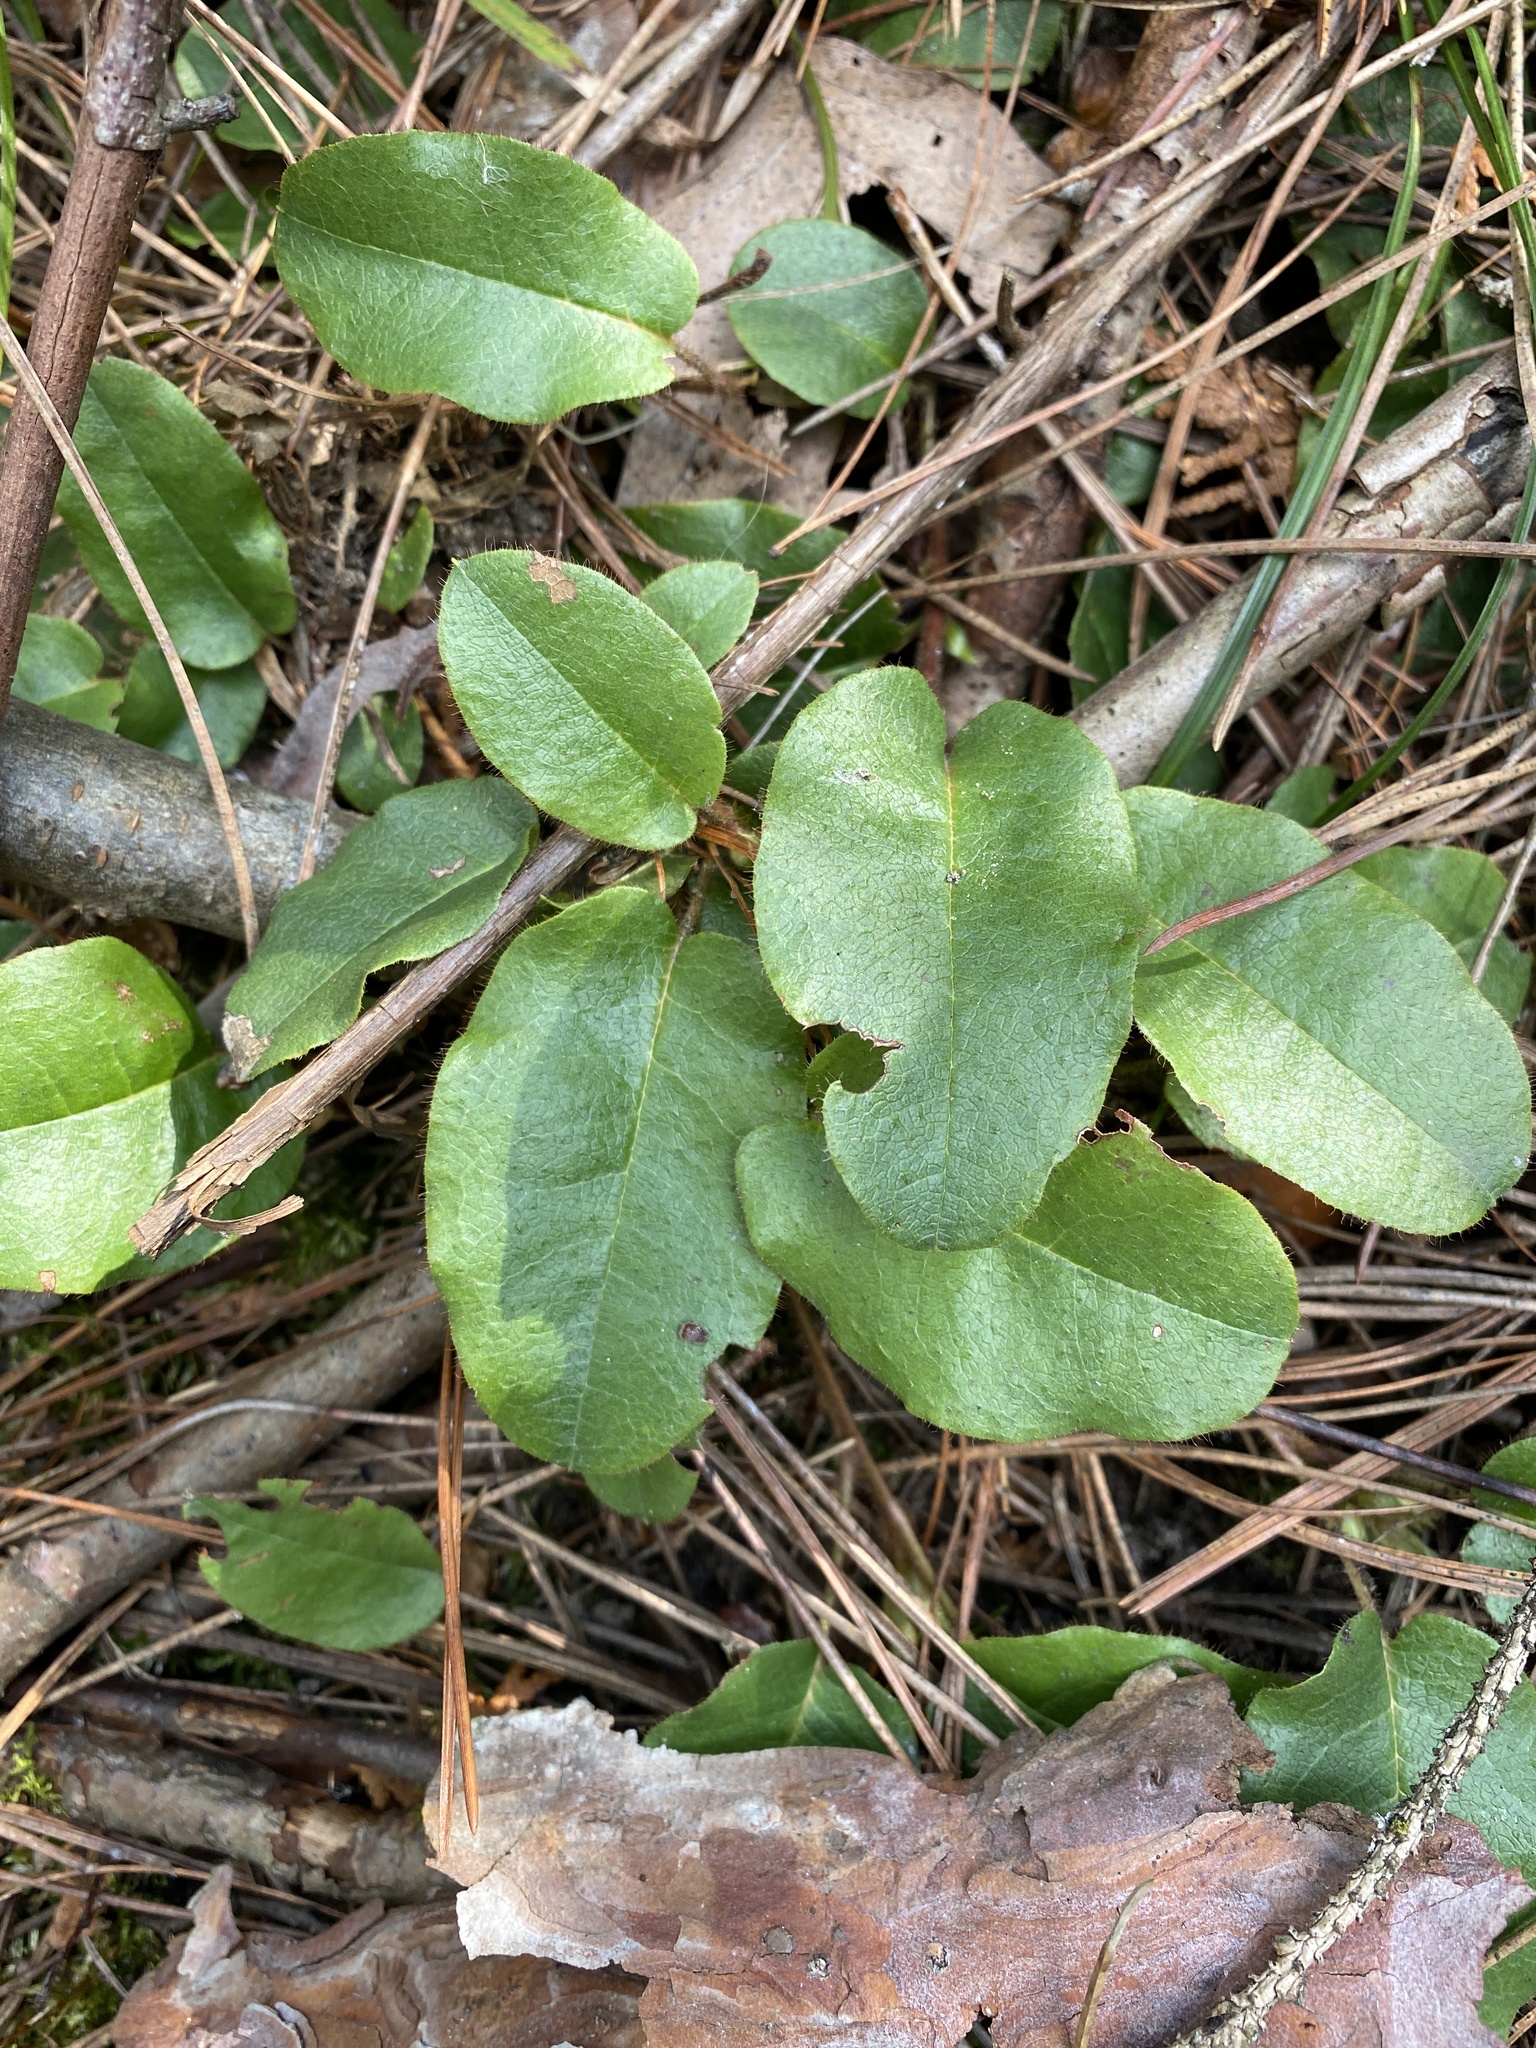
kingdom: Plantae
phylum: Tracheophyta
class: Magnoliopsida
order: Ericales
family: Ericaceae
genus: Epigaea
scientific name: Epigaea repens
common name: Gravelroot
